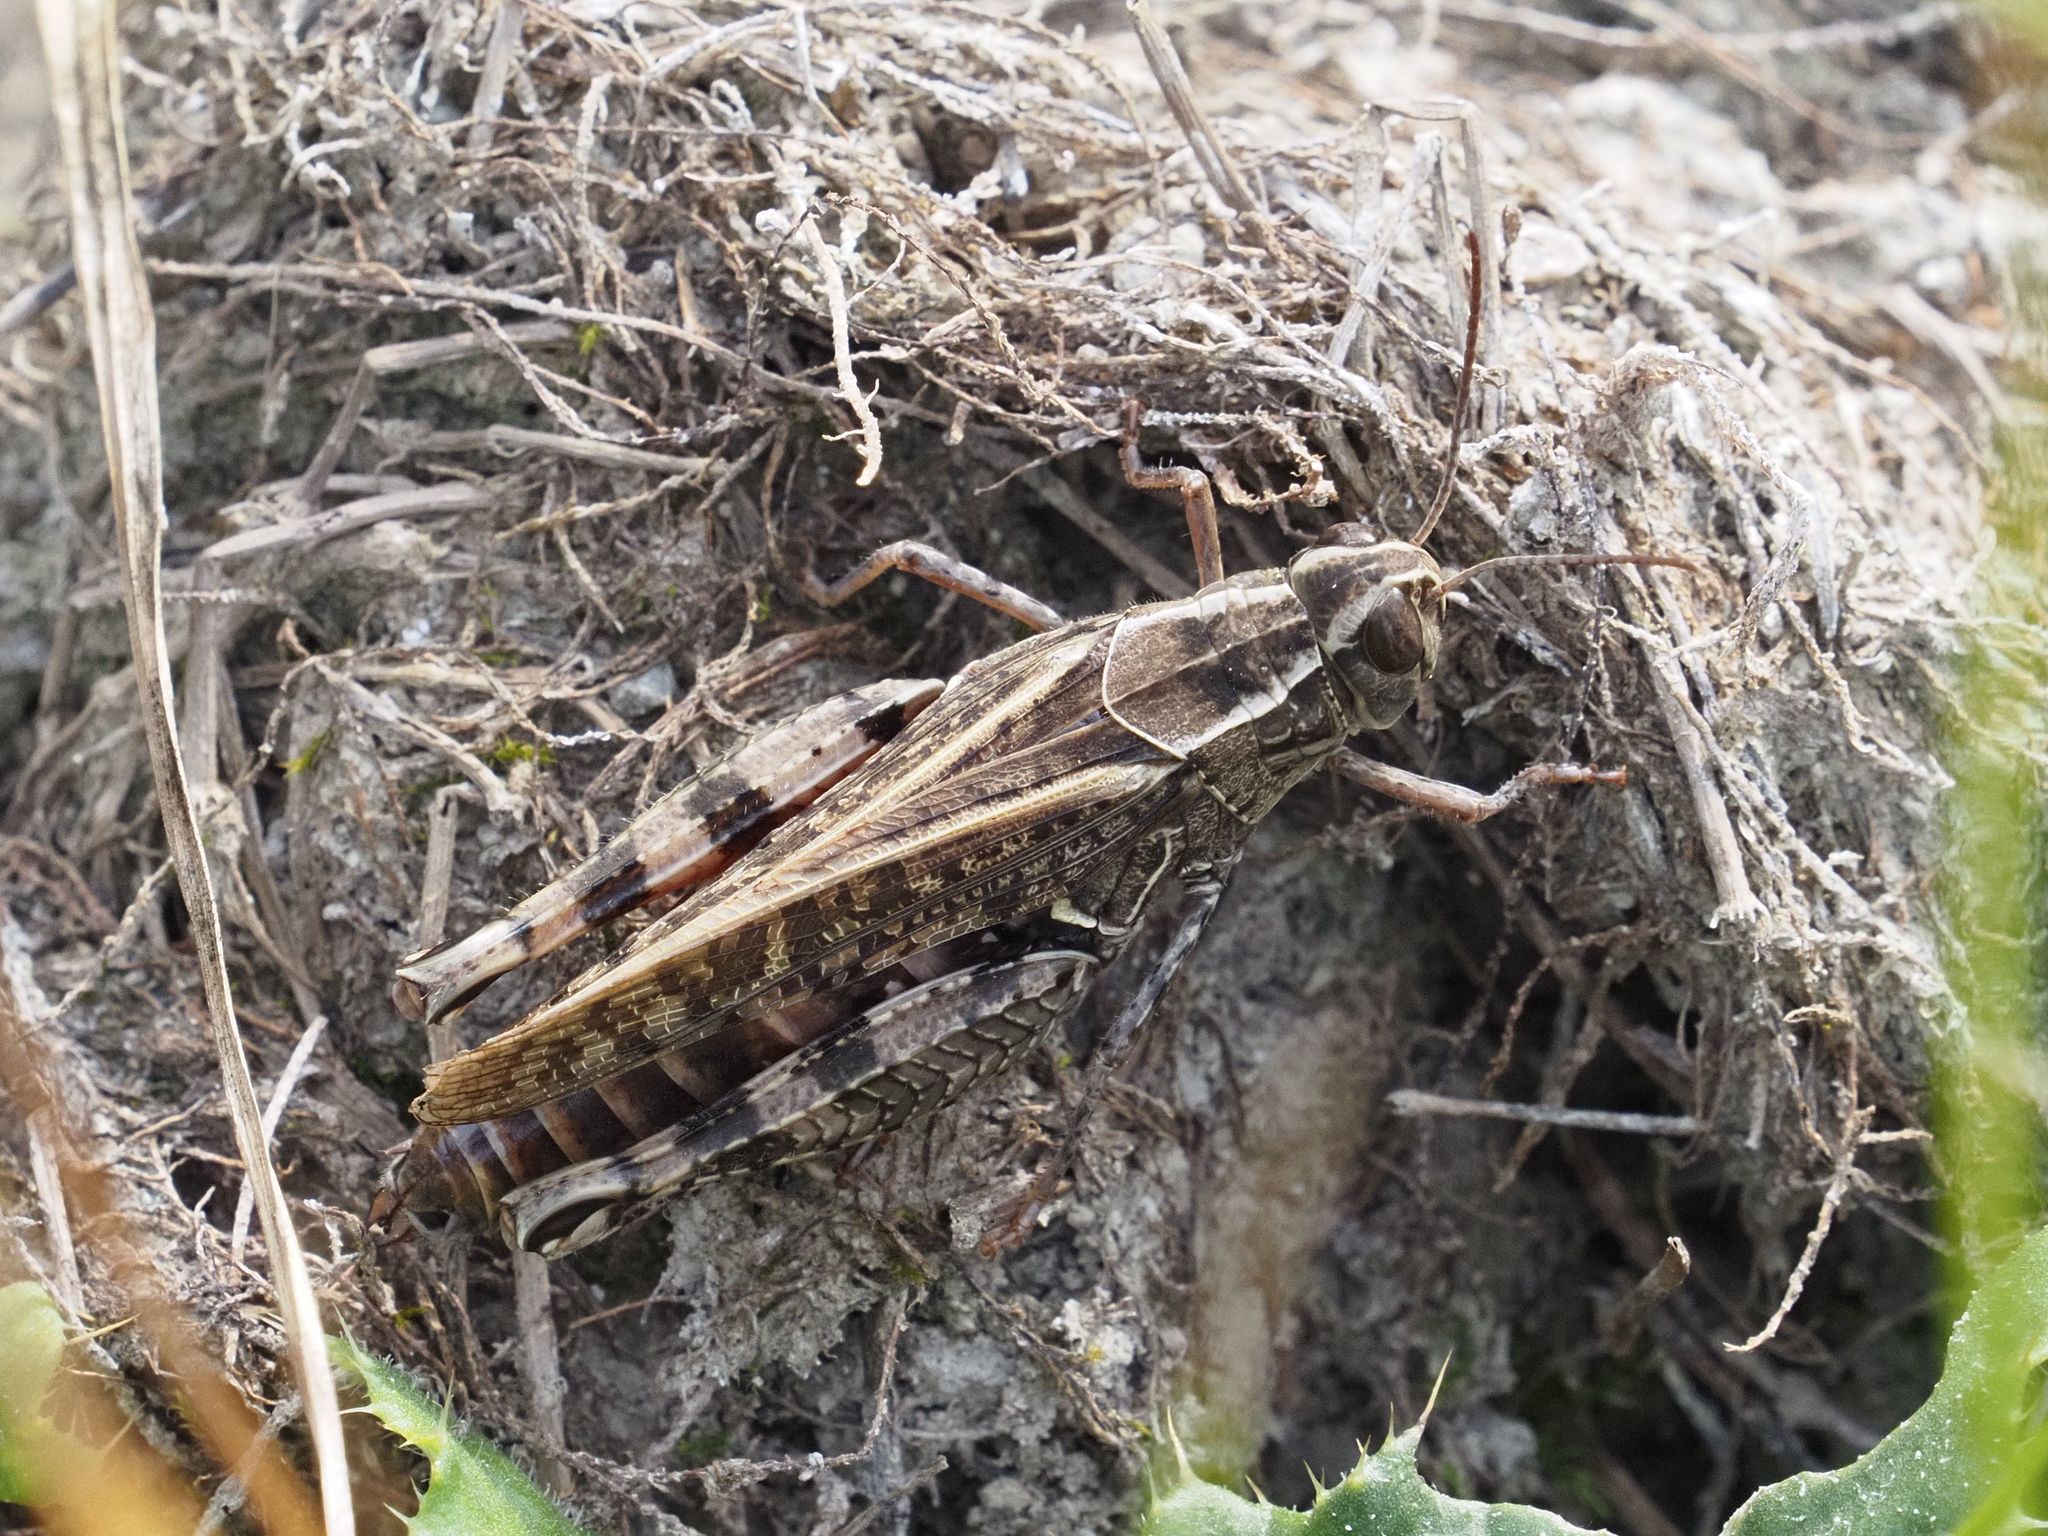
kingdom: Animalia
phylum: Arthropoda
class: Insecta
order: Orthoptera
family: Acrididae
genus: Calliptamus
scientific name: Calliptamus italicus
